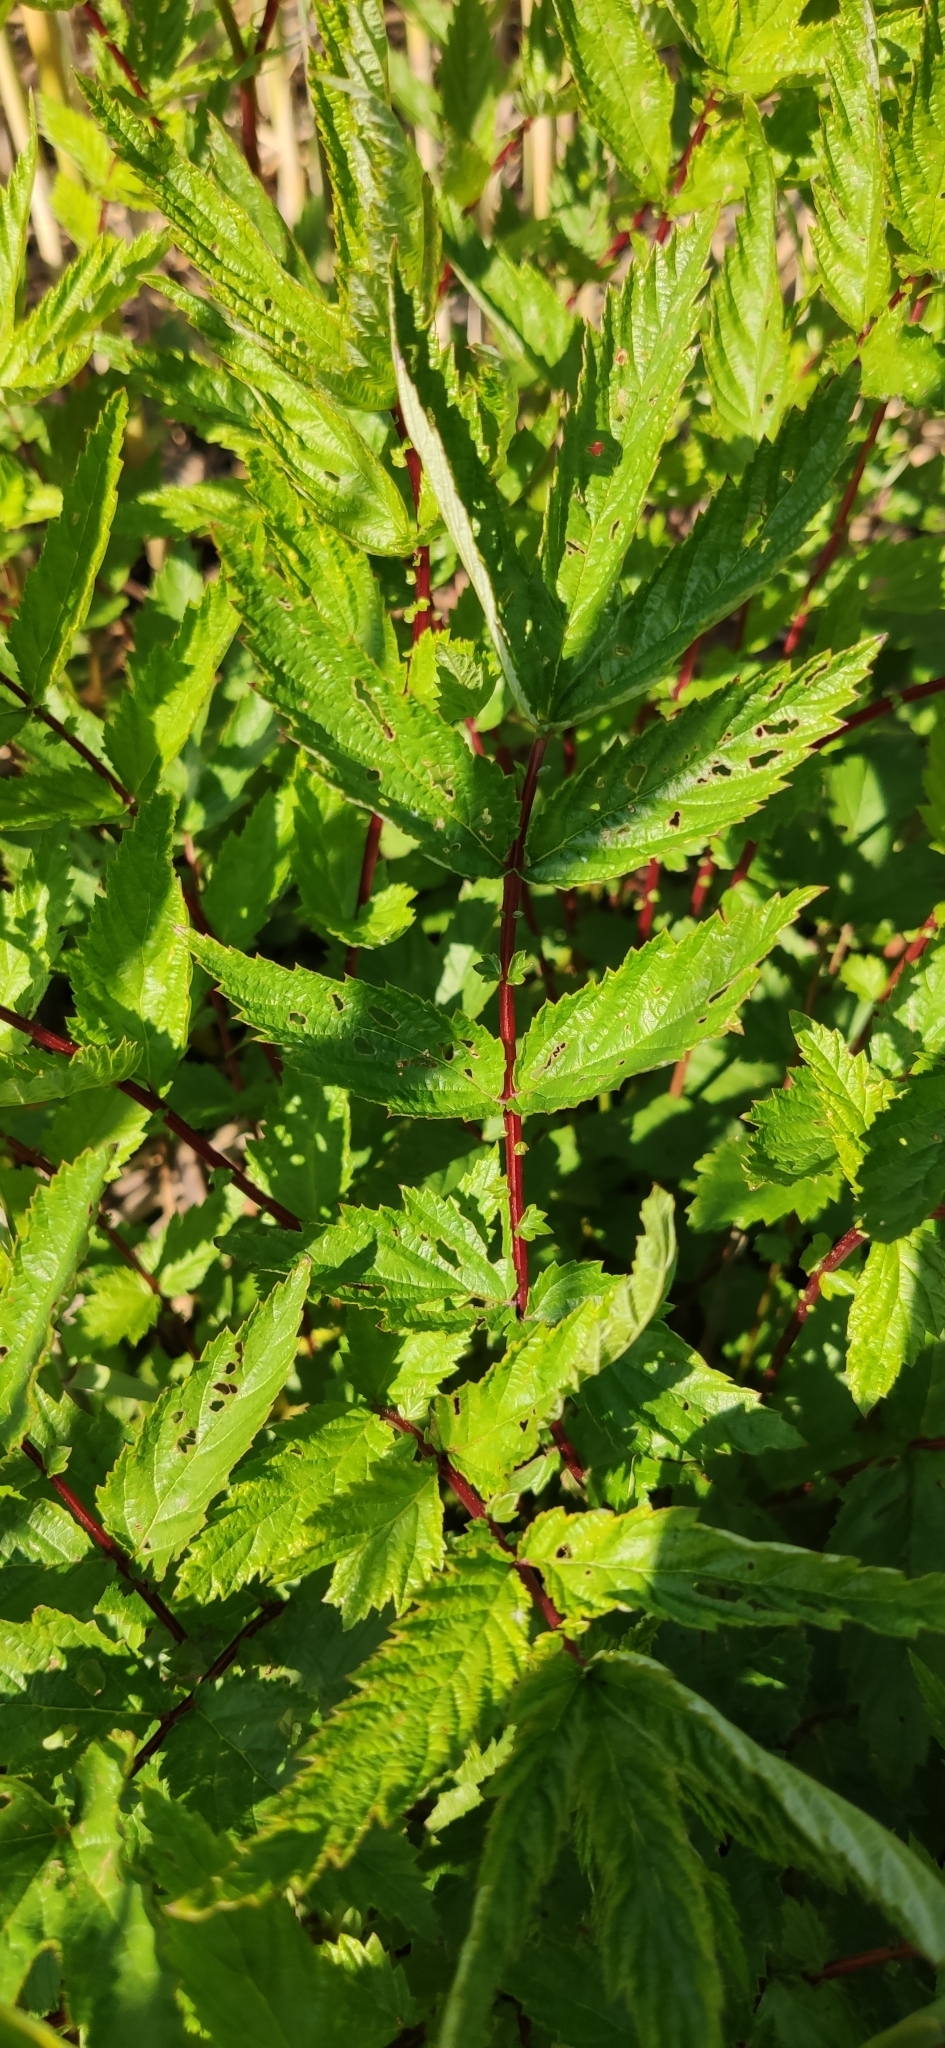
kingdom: Plantae
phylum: Tracheophyta
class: Magnoliopsida
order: Rosales
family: Rosaceae
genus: Filipendula
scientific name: Filipendula ulmaria
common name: Meadowsweet
